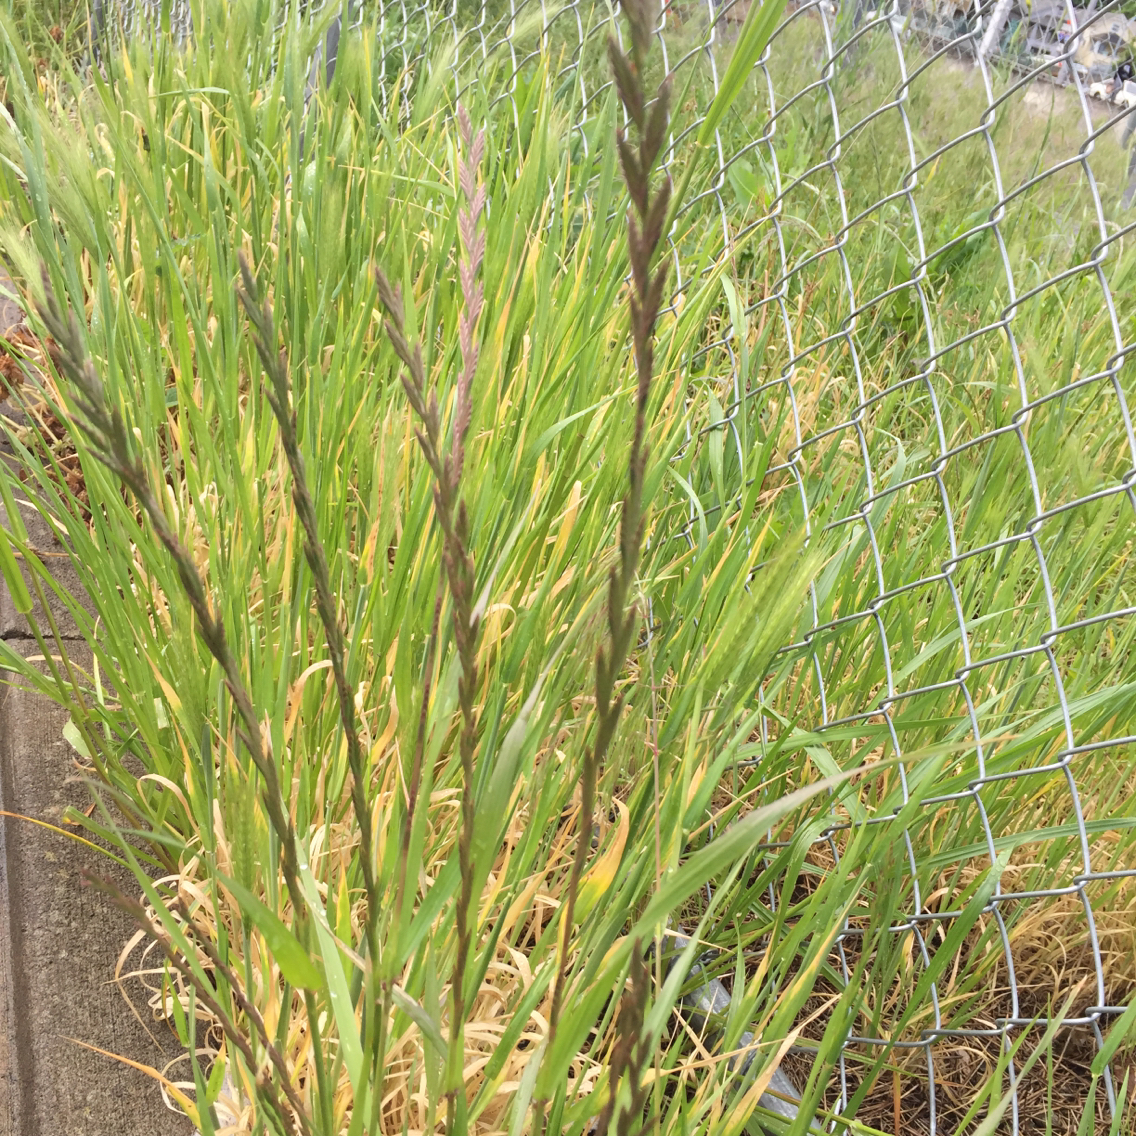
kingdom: Plantae
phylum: Tracheophyta
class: Liliopsida
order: Poales
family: Poaceae
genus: Lolium
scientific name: Lolium perenne
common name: Perennial ryegrass
